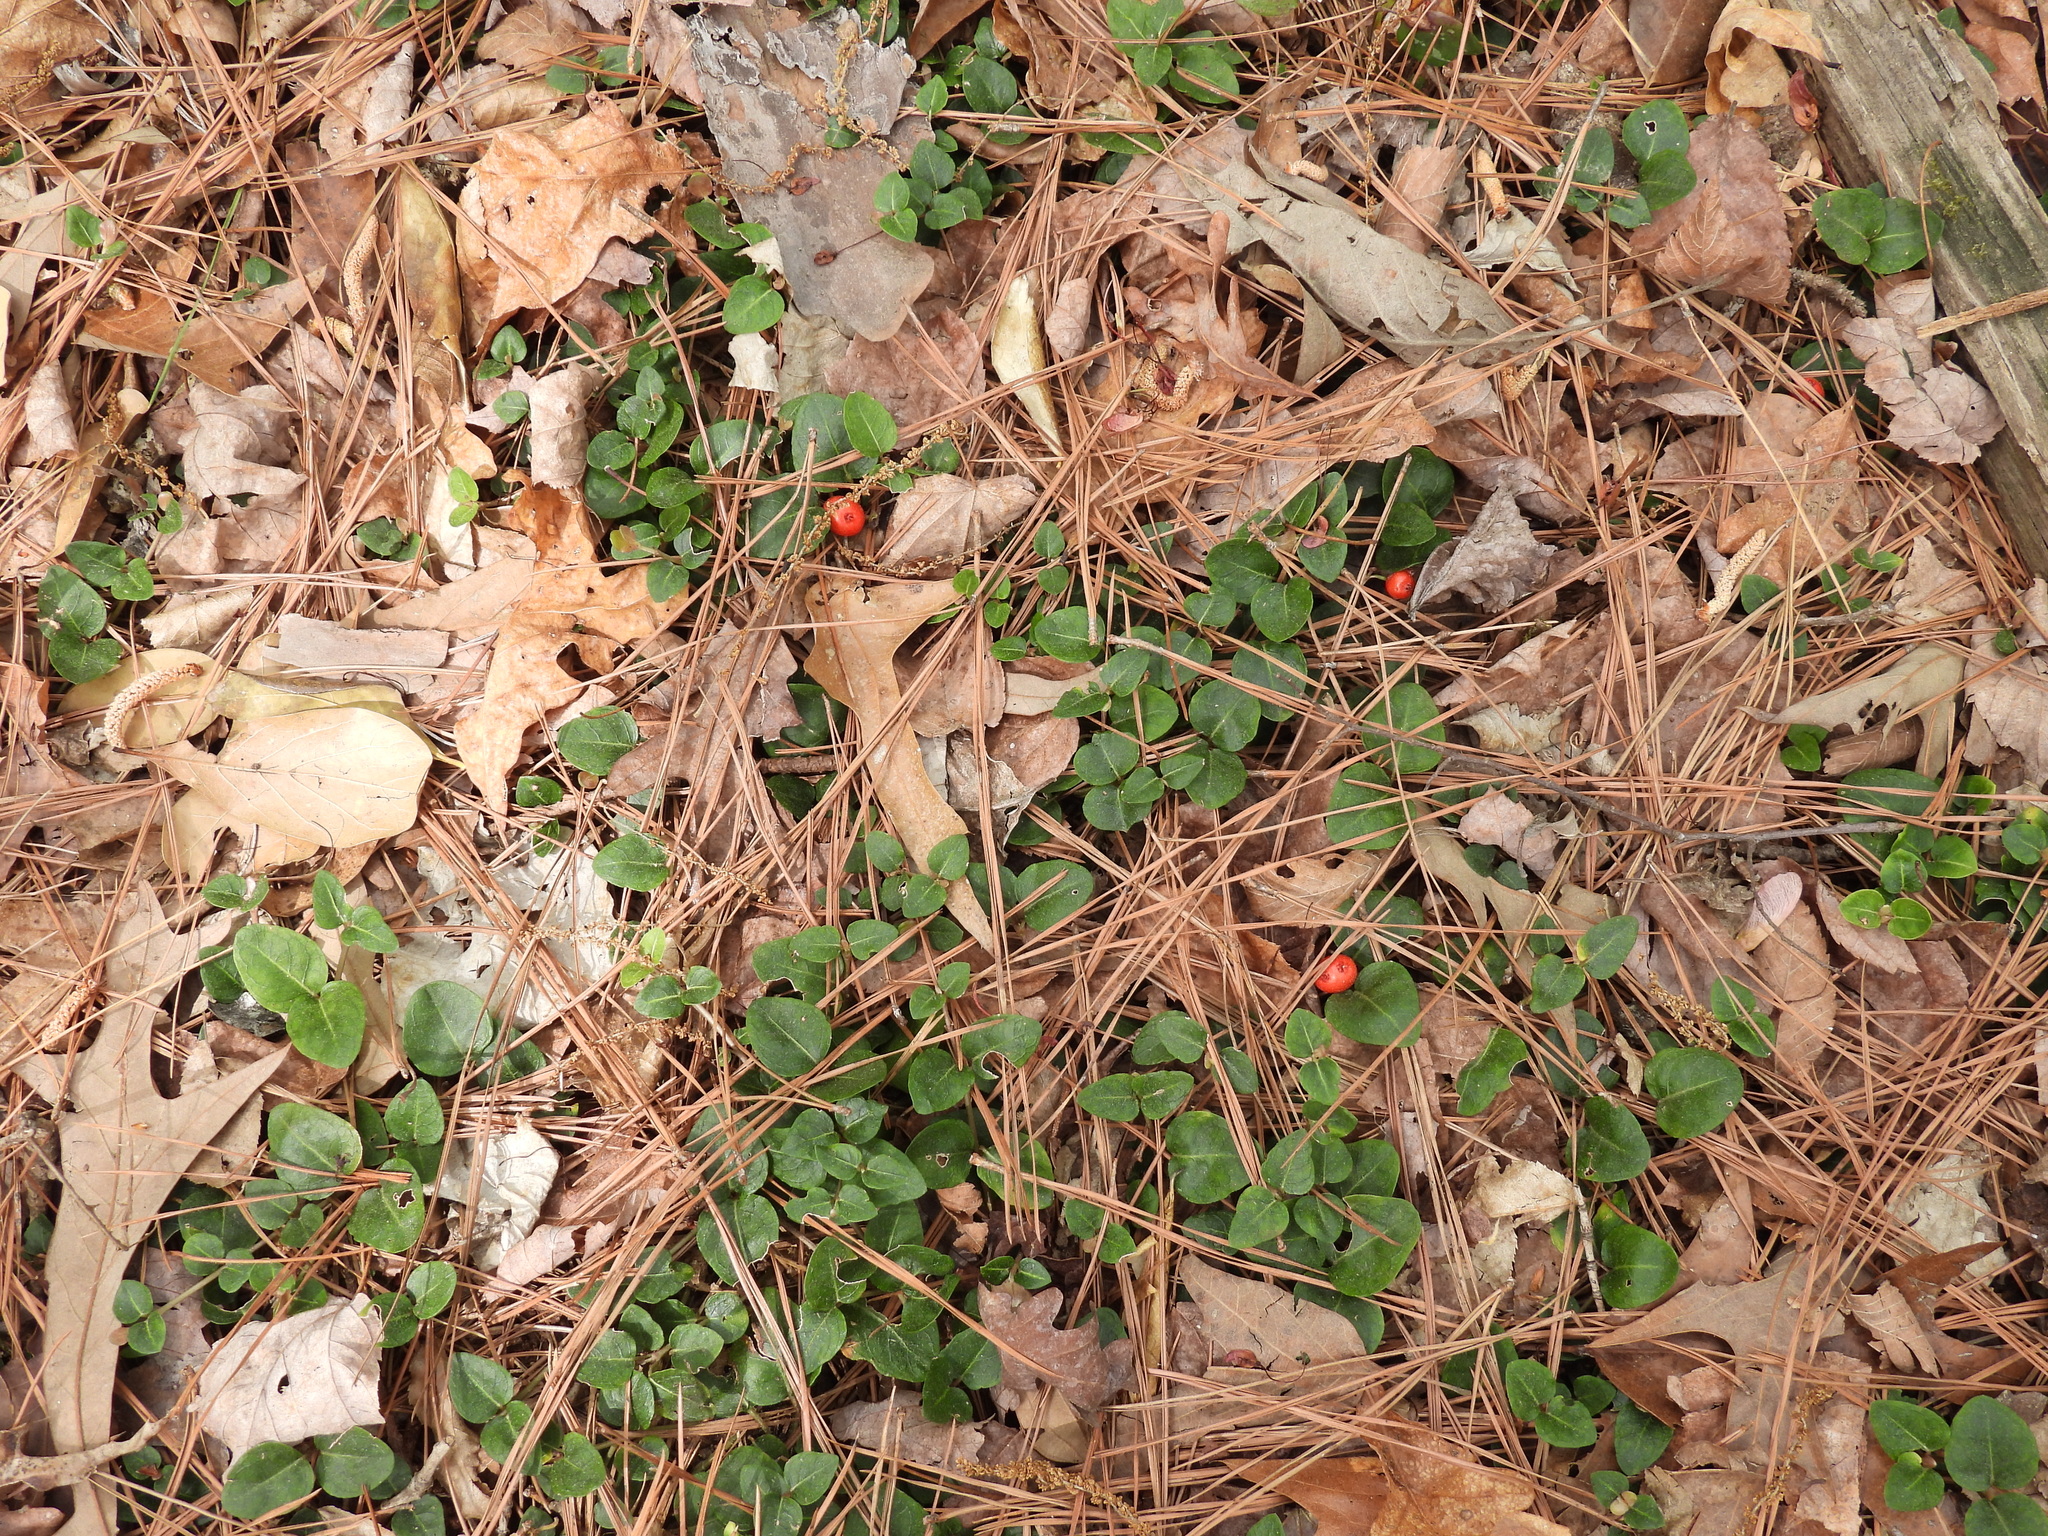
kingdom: Plantae
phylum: Tracheophyta
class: Magnoliopsida
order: Gentianales
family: Rubiaceae
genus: Mitchella
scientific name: Mitchella repens
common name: Partridge-berry
